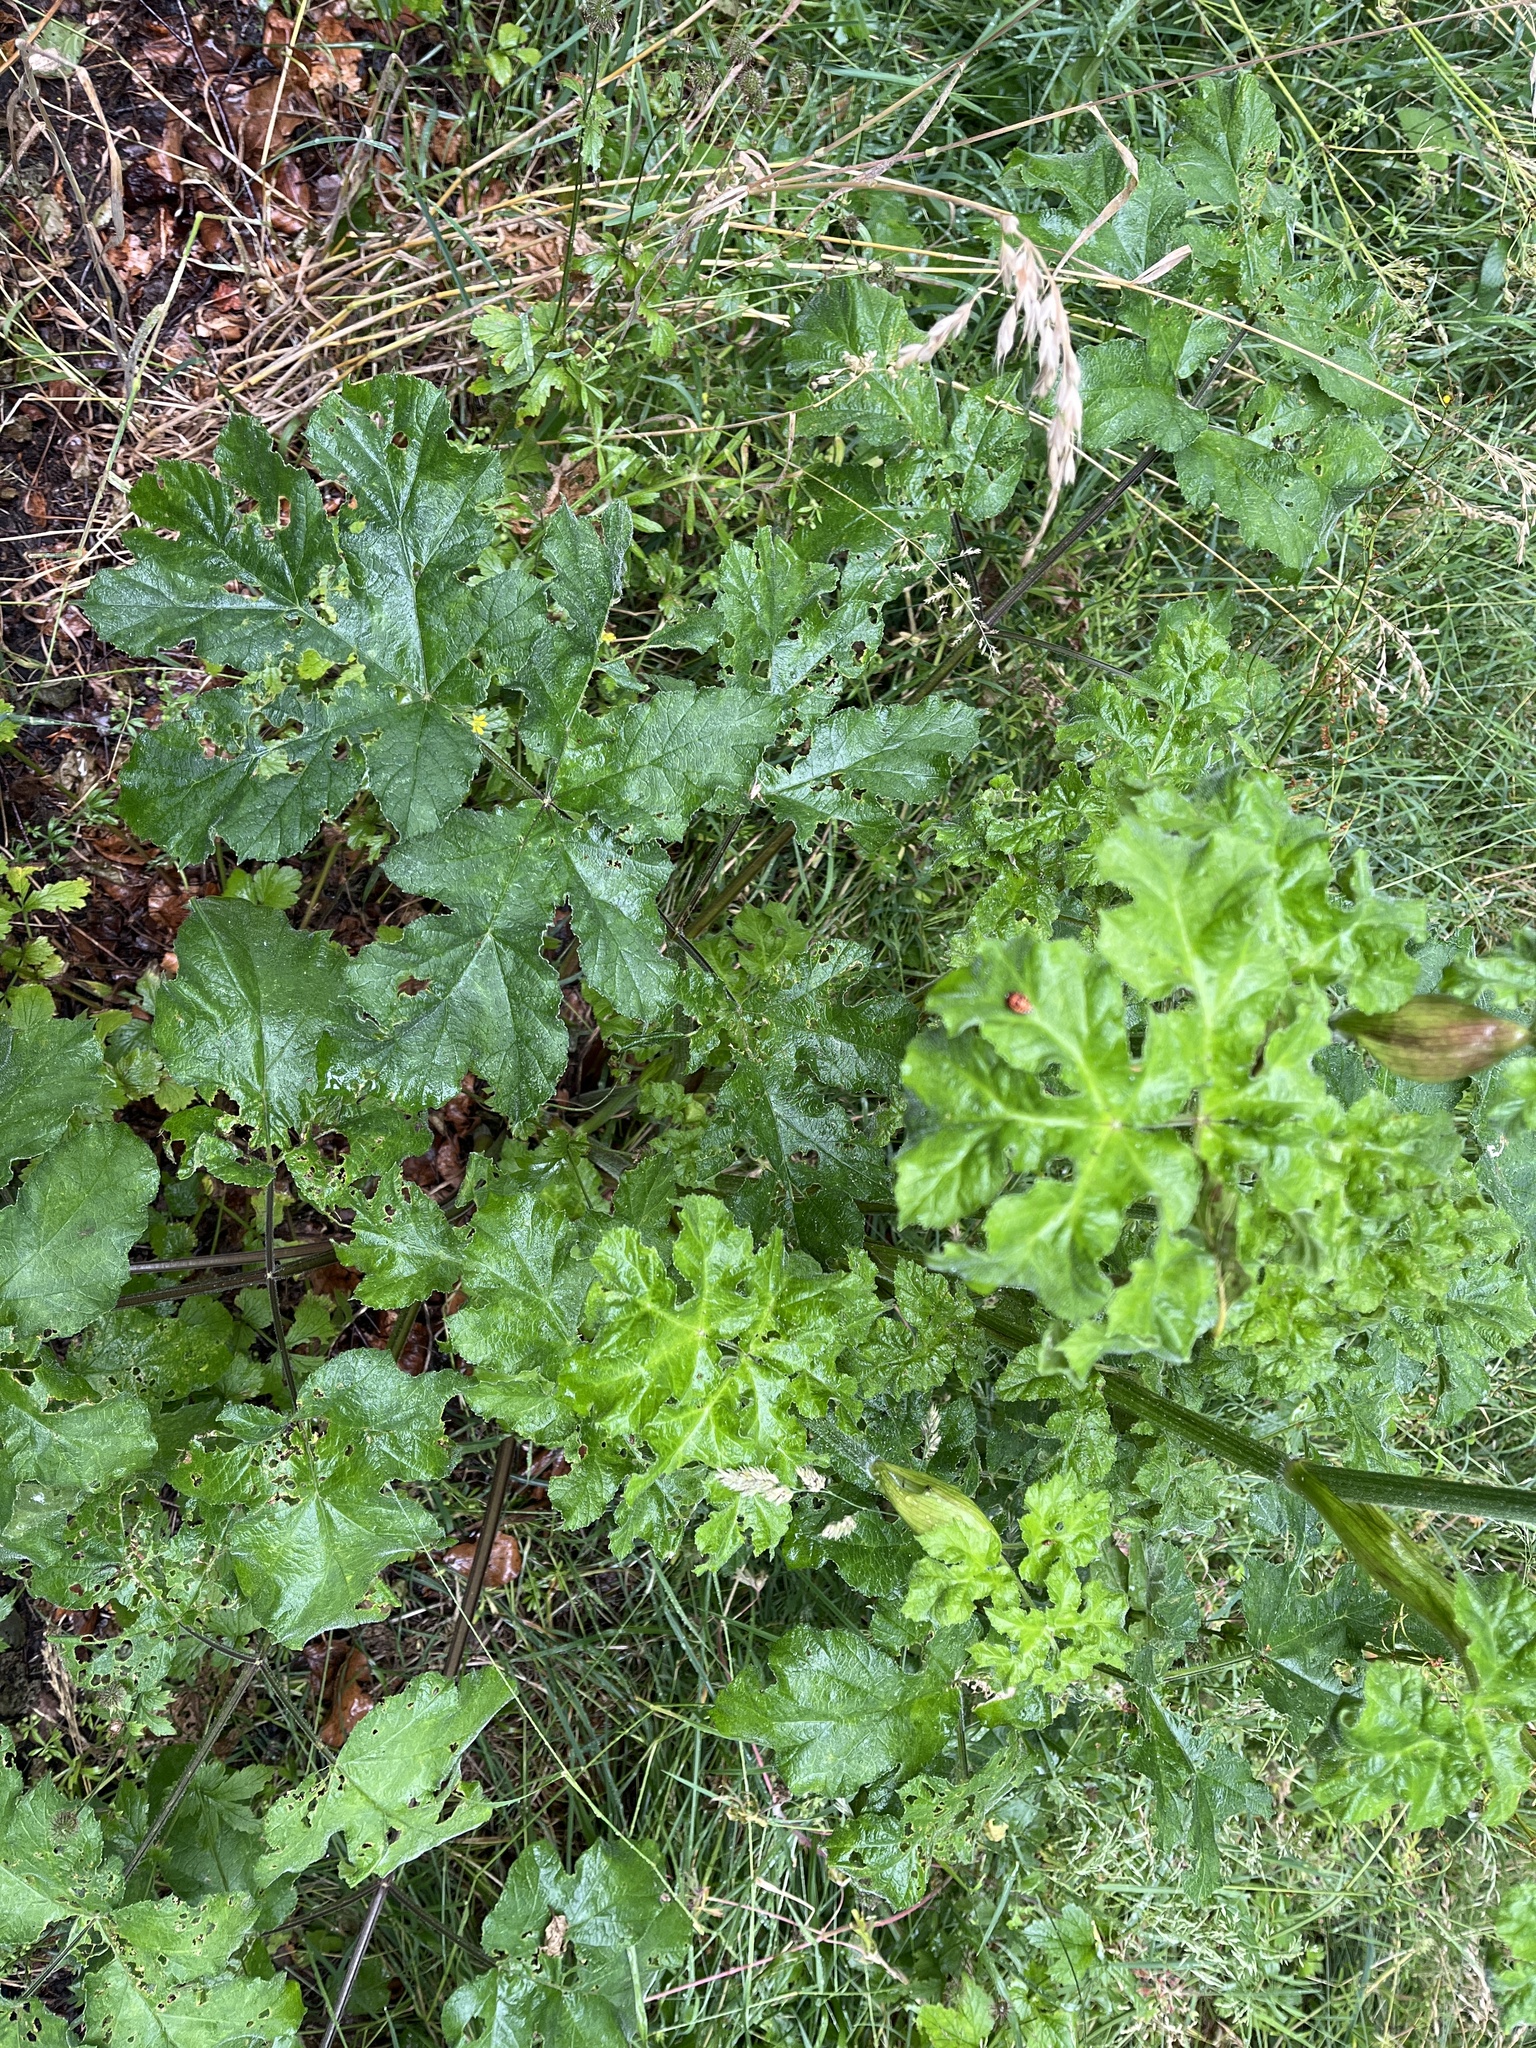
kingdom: Plantae
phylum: Tracheophyta
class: Magnoliopsida
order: Apiales
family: Apiaceae
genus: Heracleum
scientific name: Heracleum sphondylium
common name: Hogweed
